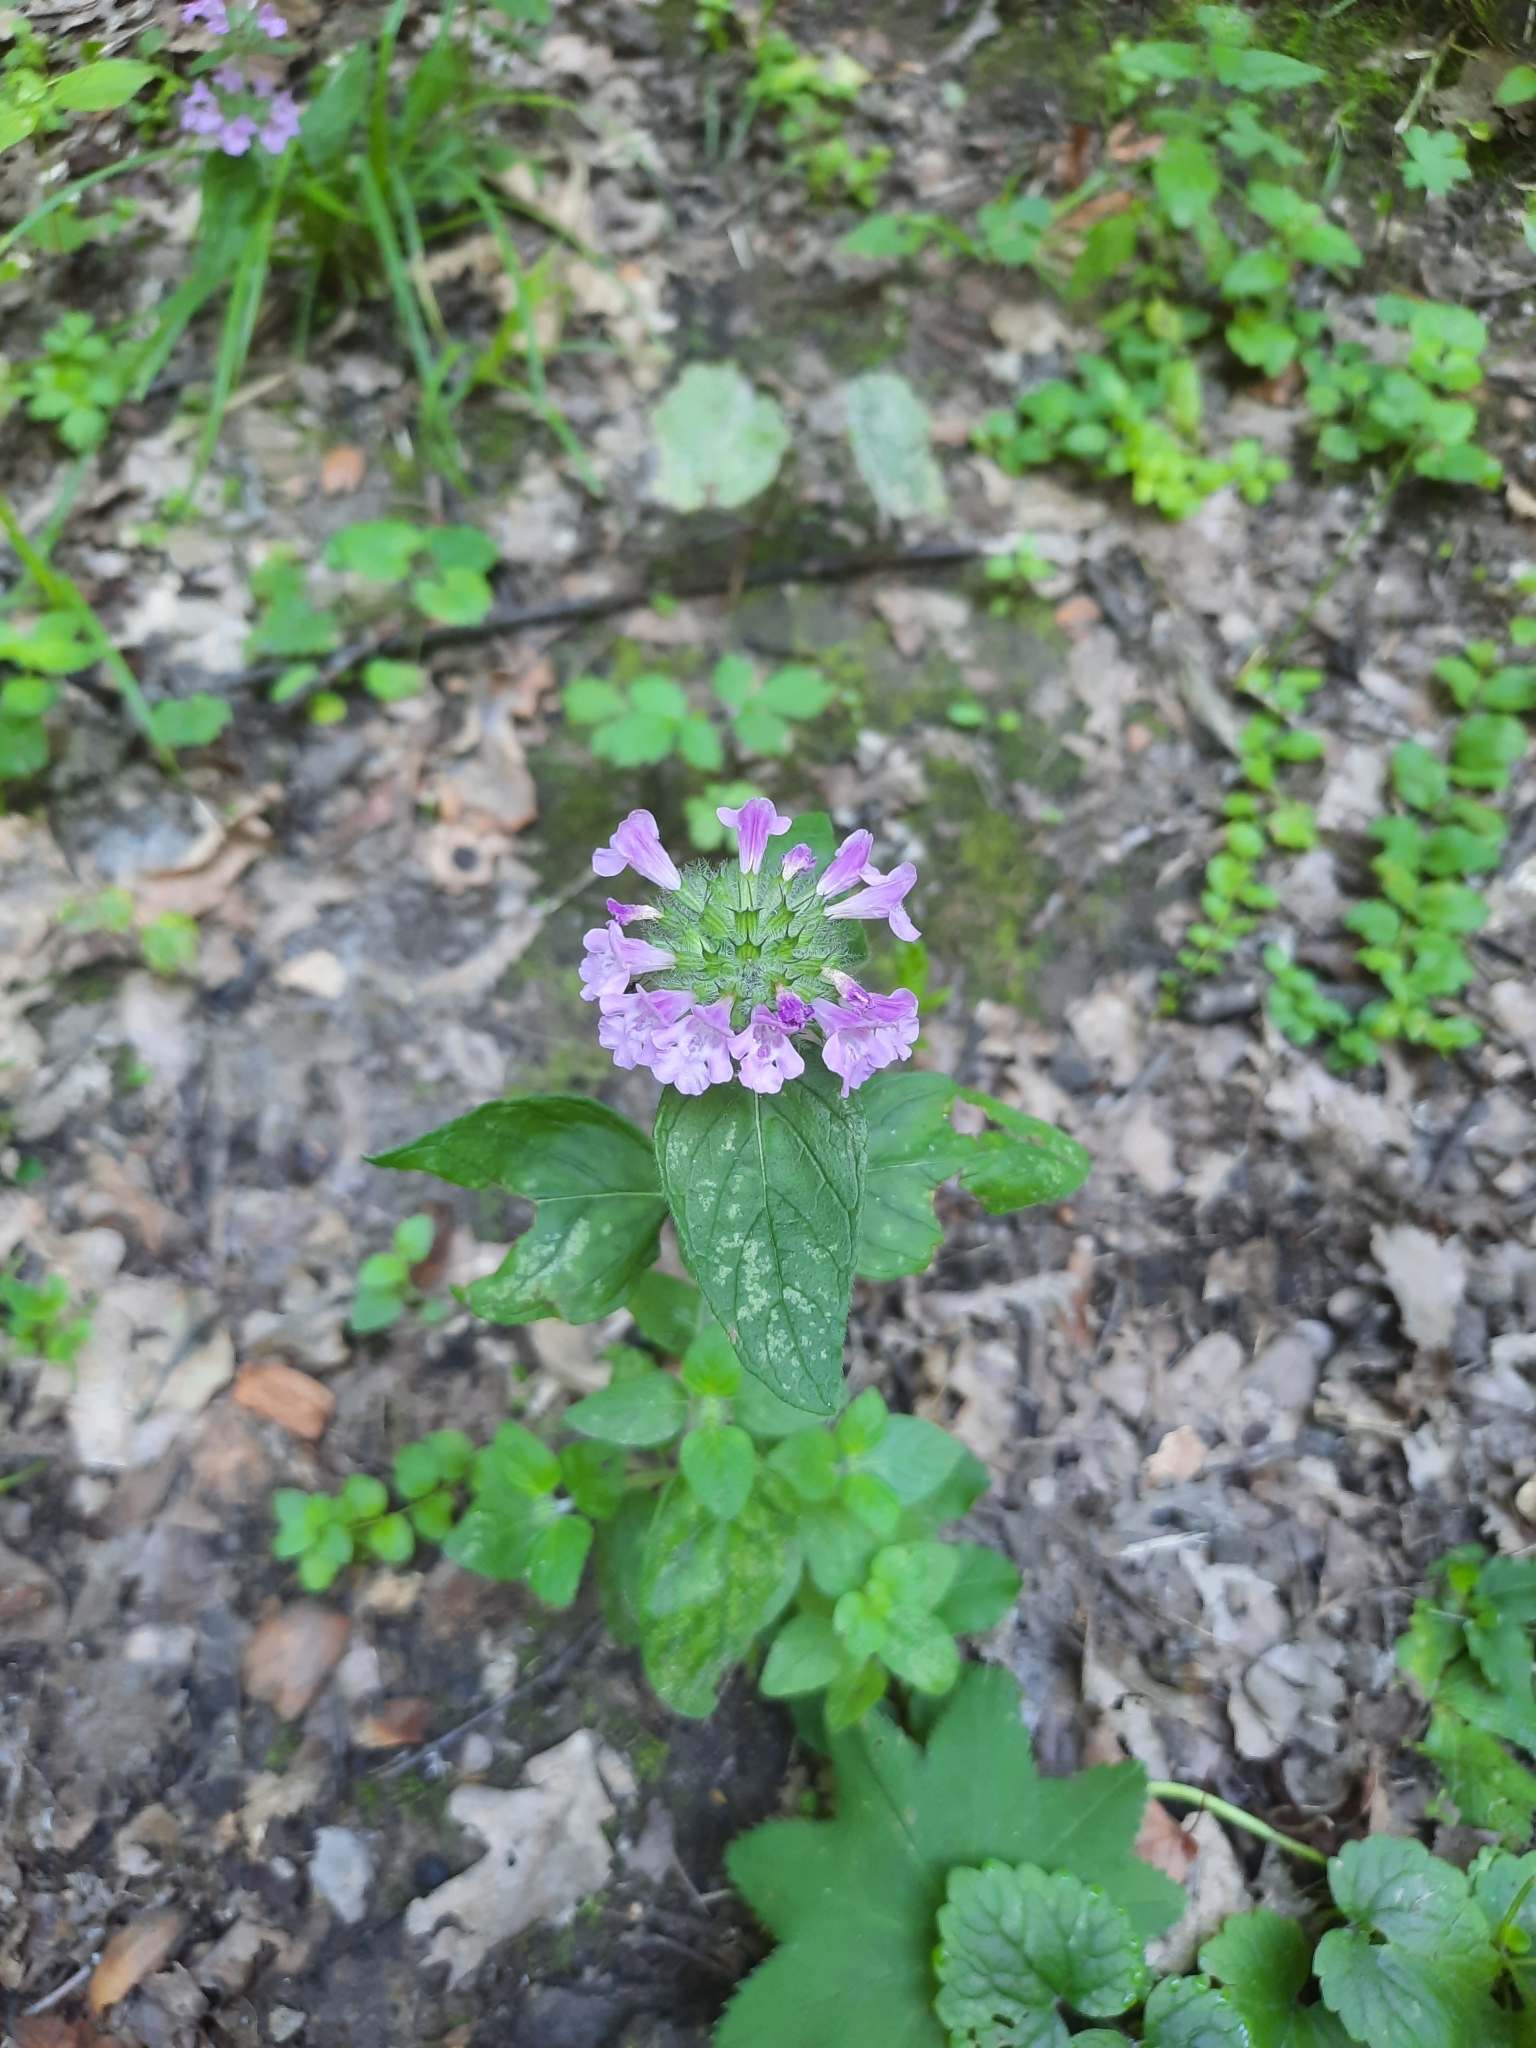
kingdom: Plantae
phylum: Tracheophyta
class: Magnoliopsida
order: Lamiales
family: Lamiaceae
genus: Clinopodium
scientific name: Clinopodium vulgare
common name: Wild basil
